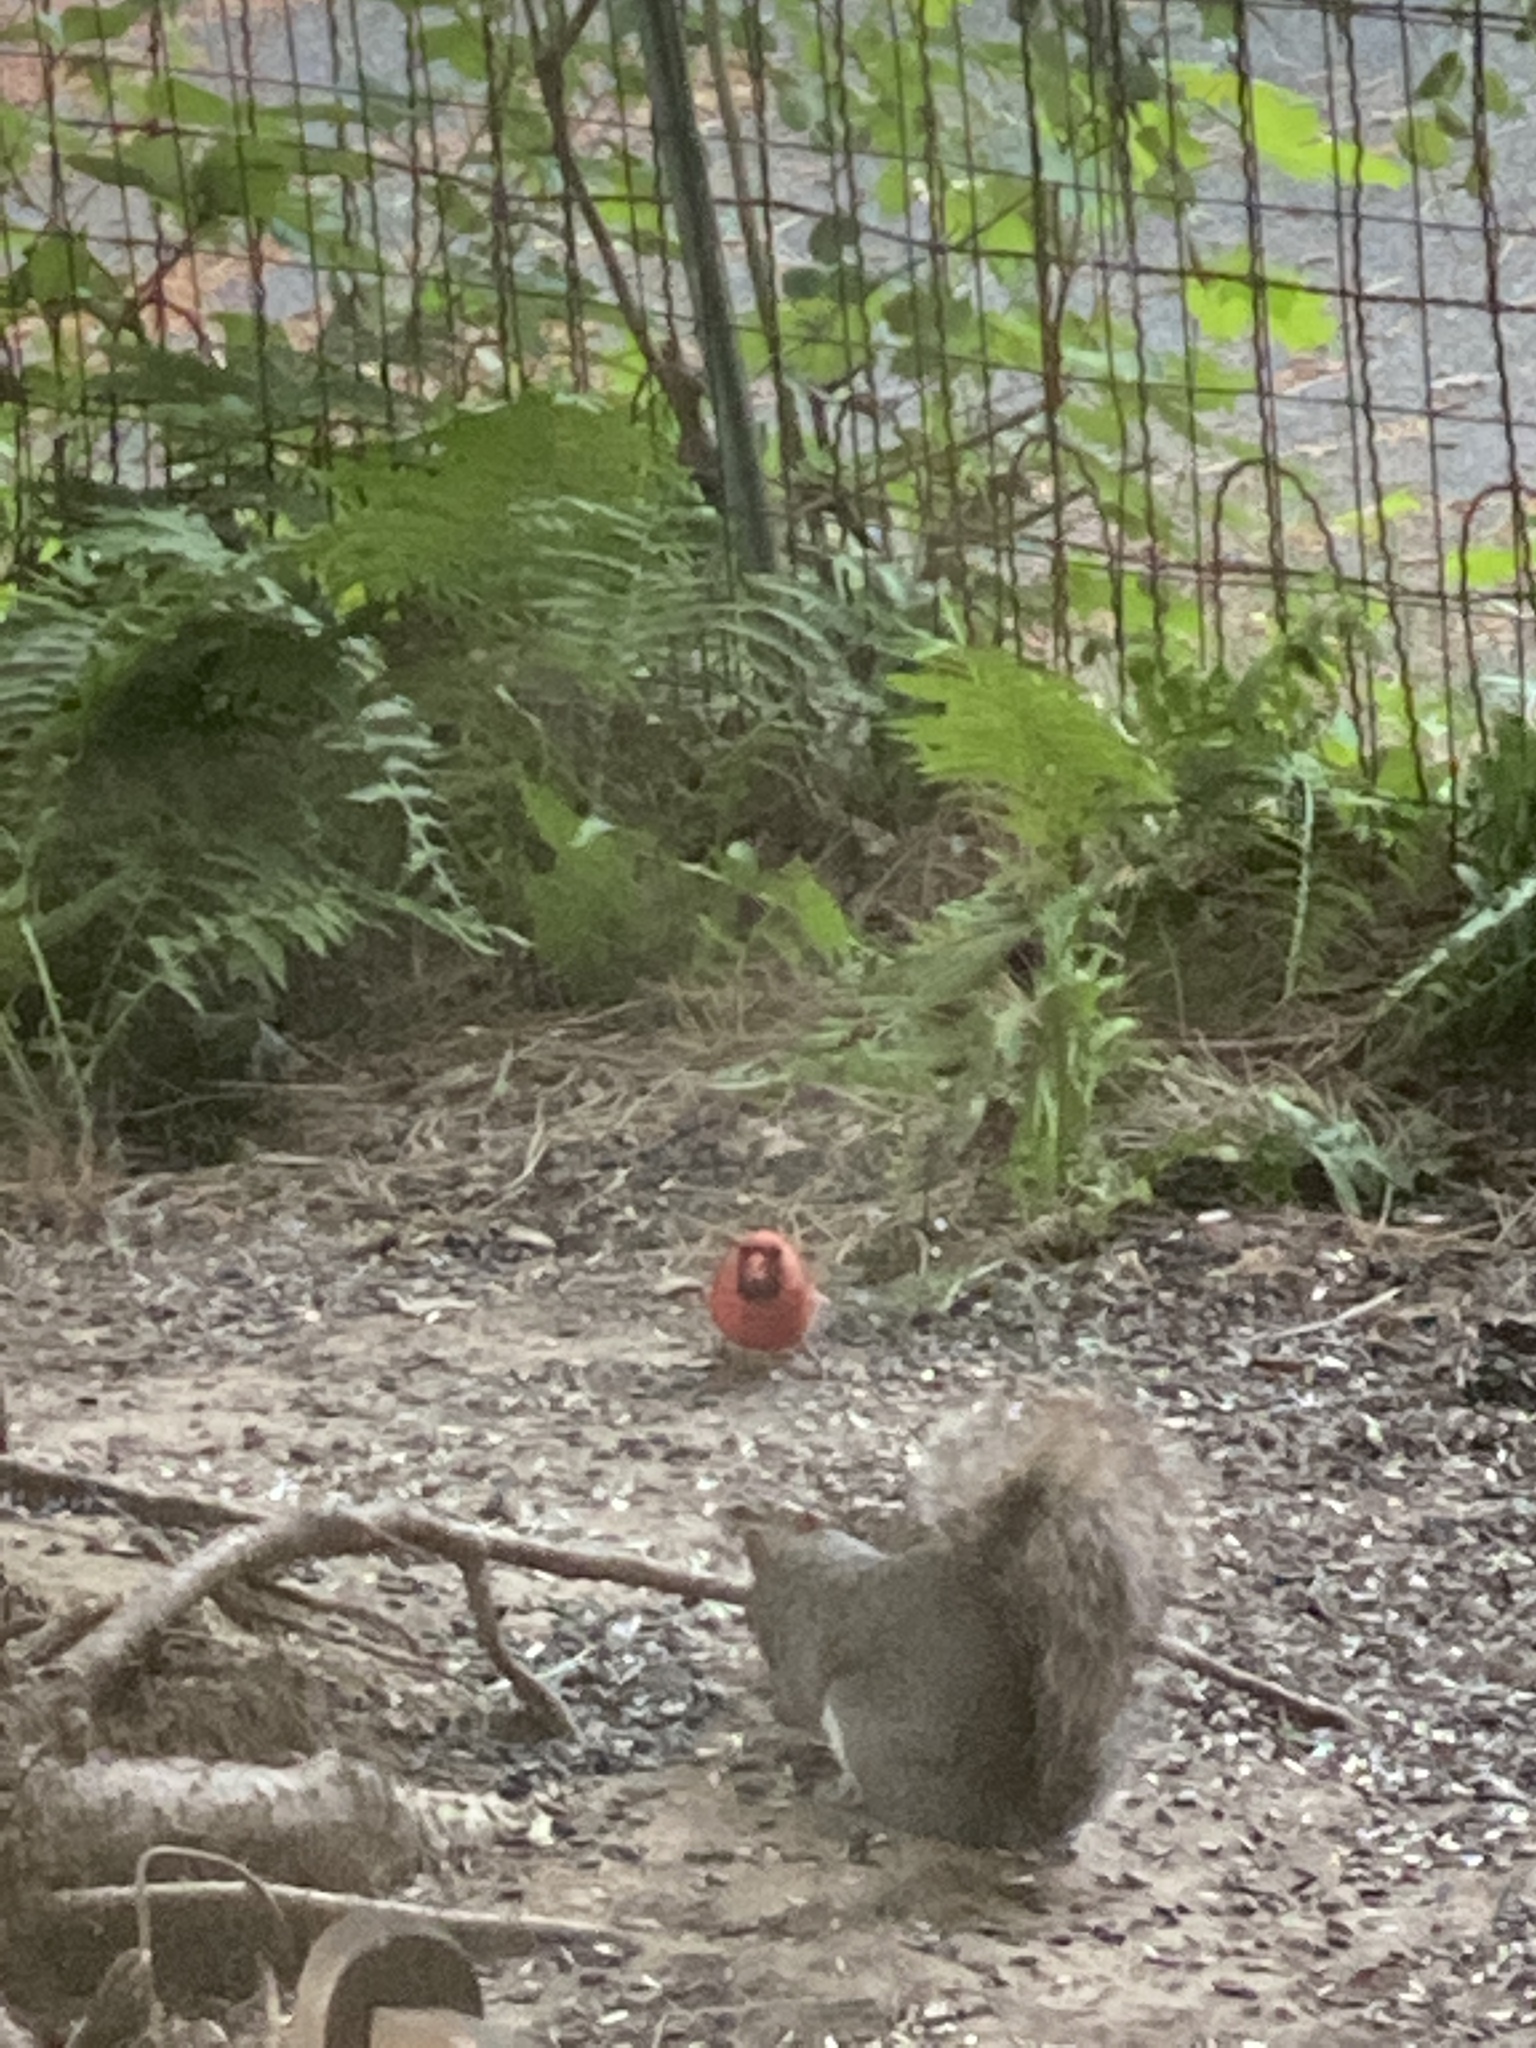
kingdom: Animalia
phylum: Chordata
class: Aves
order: Passeriformes
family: Cardinalidae
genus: Cardinalis
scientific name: Cardinalis cardinalis
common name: Northern cardinal
